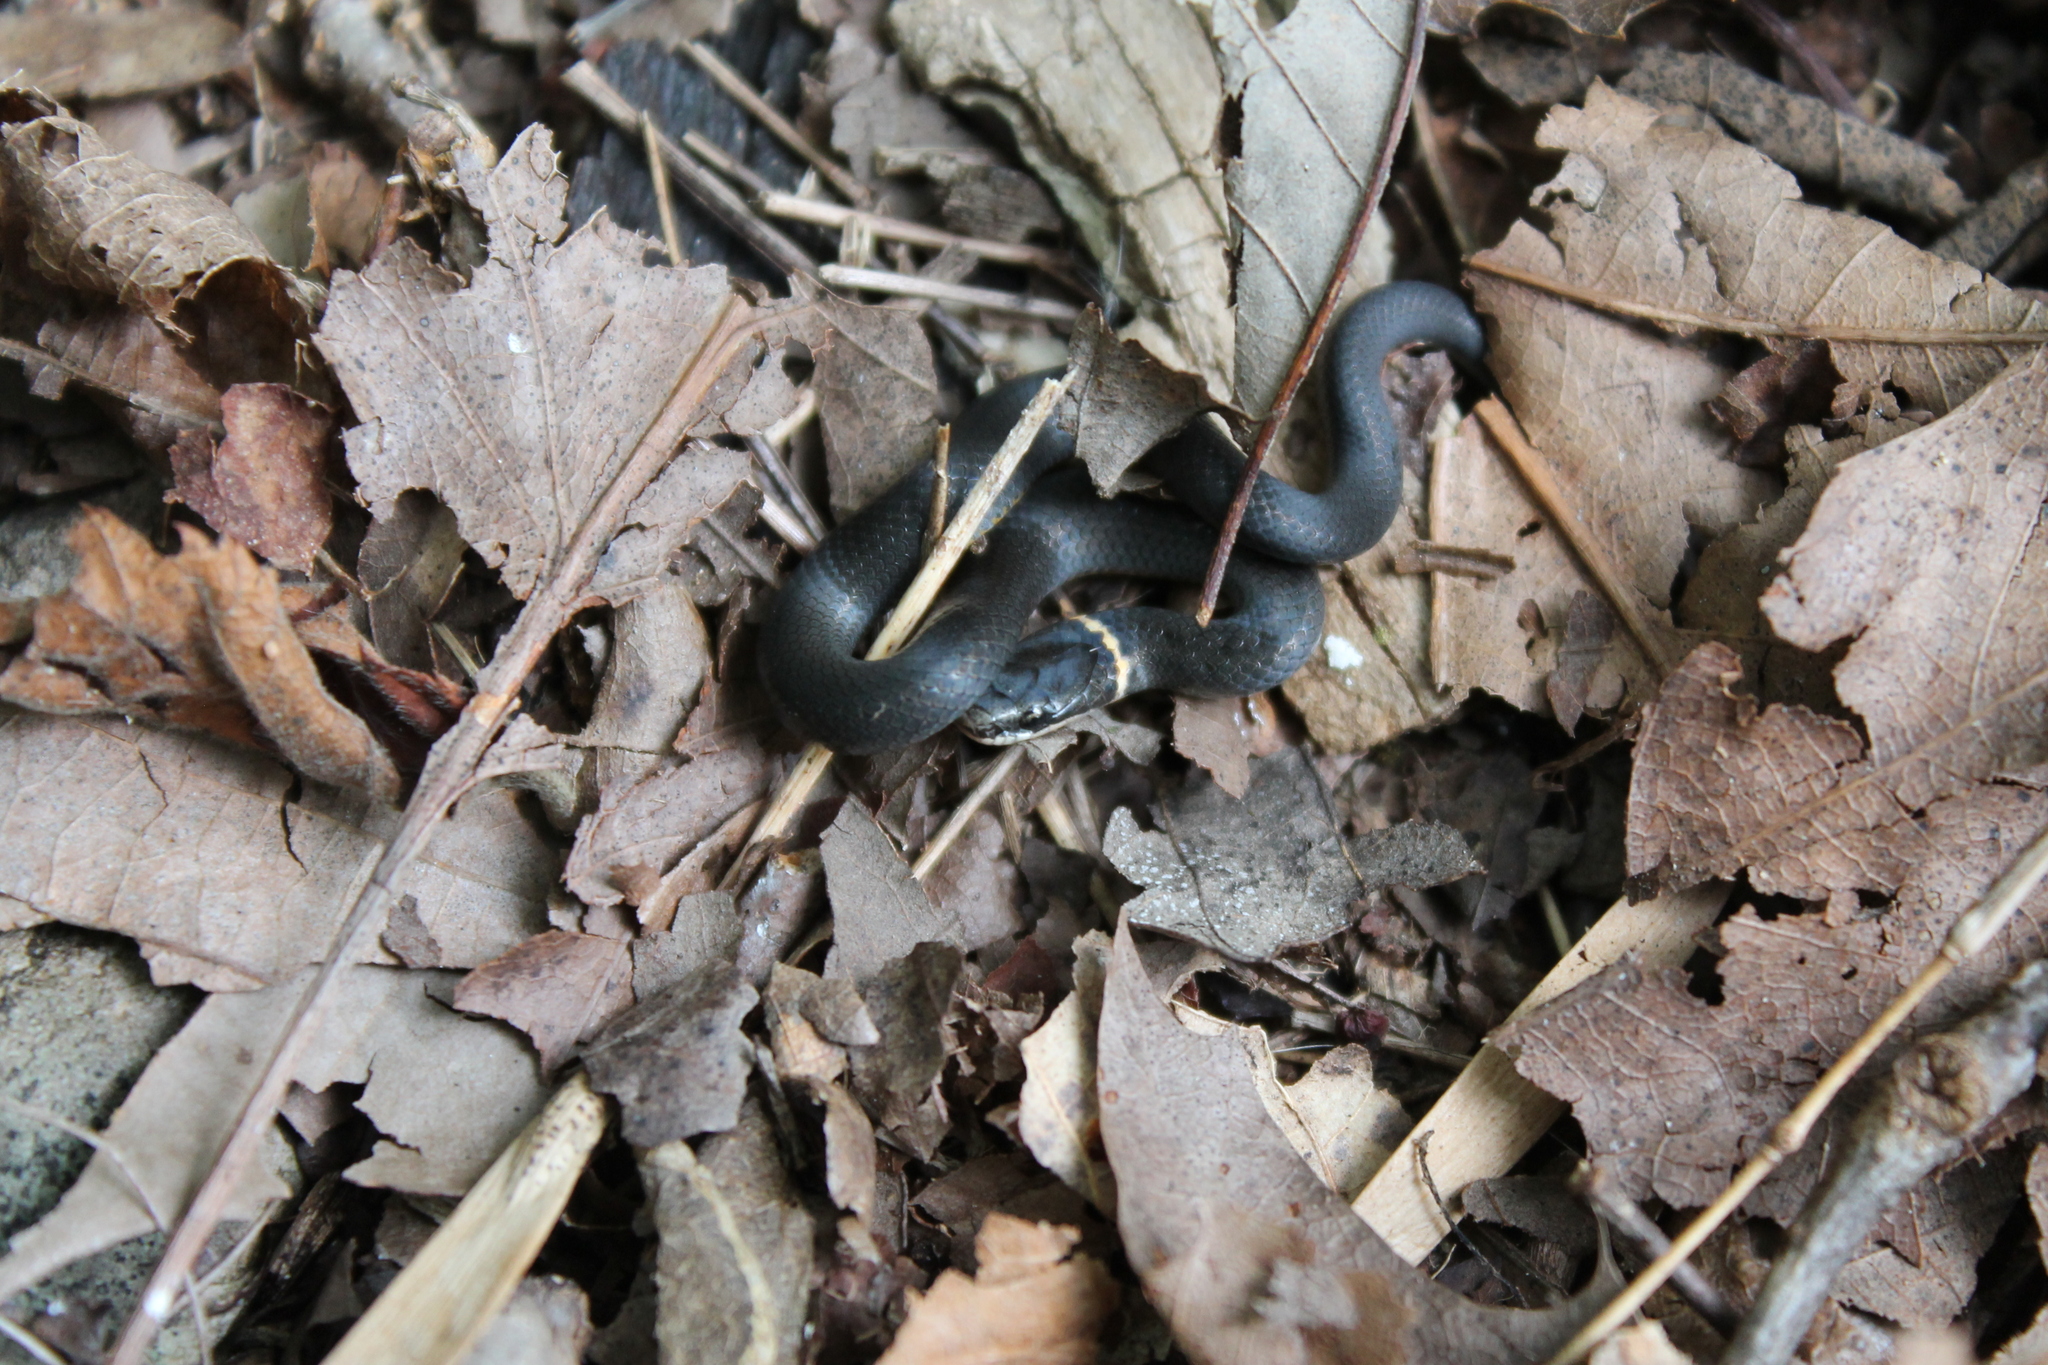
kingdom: Animalia
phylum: Chordata
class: Squamata
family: Colubridae
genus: Diadophis
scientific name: Diadophis punctatus
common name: Ringneck snake
